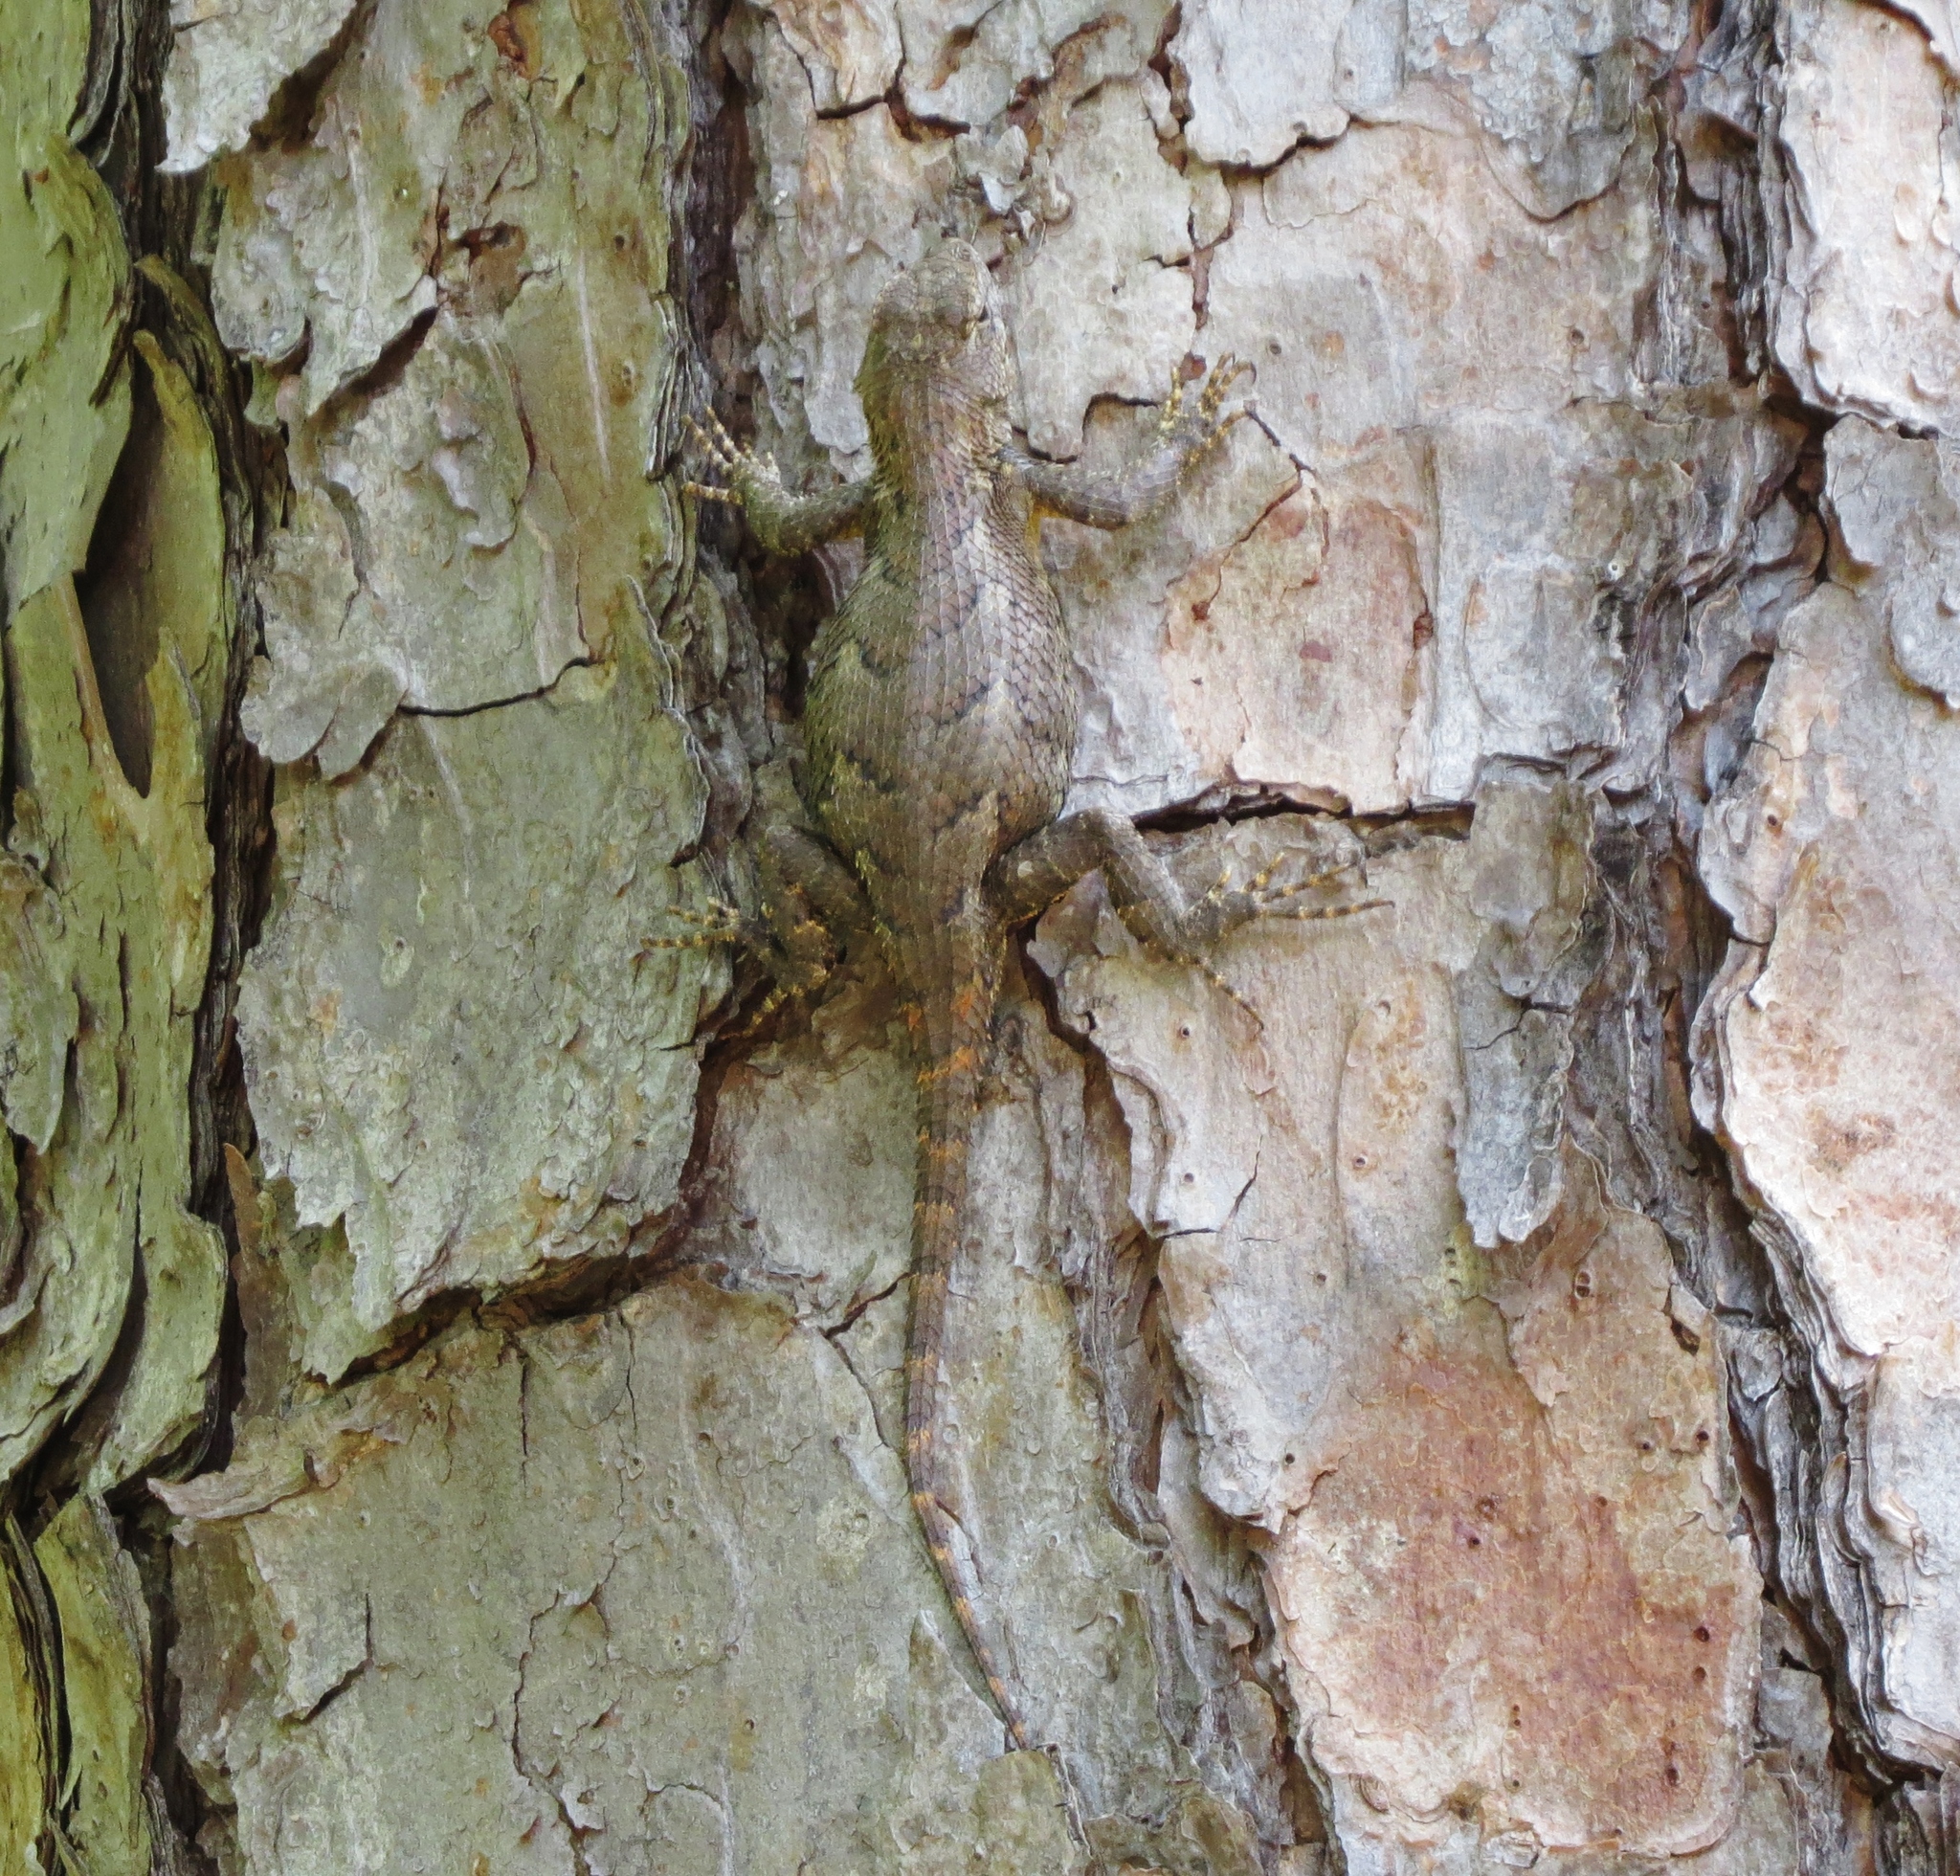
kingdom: Animalia
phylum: Chordata
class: Squamata
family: Phrynosomatidae
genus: Sceloporus
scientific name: Sceloporus undulatus
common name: Eastern fence lizard
